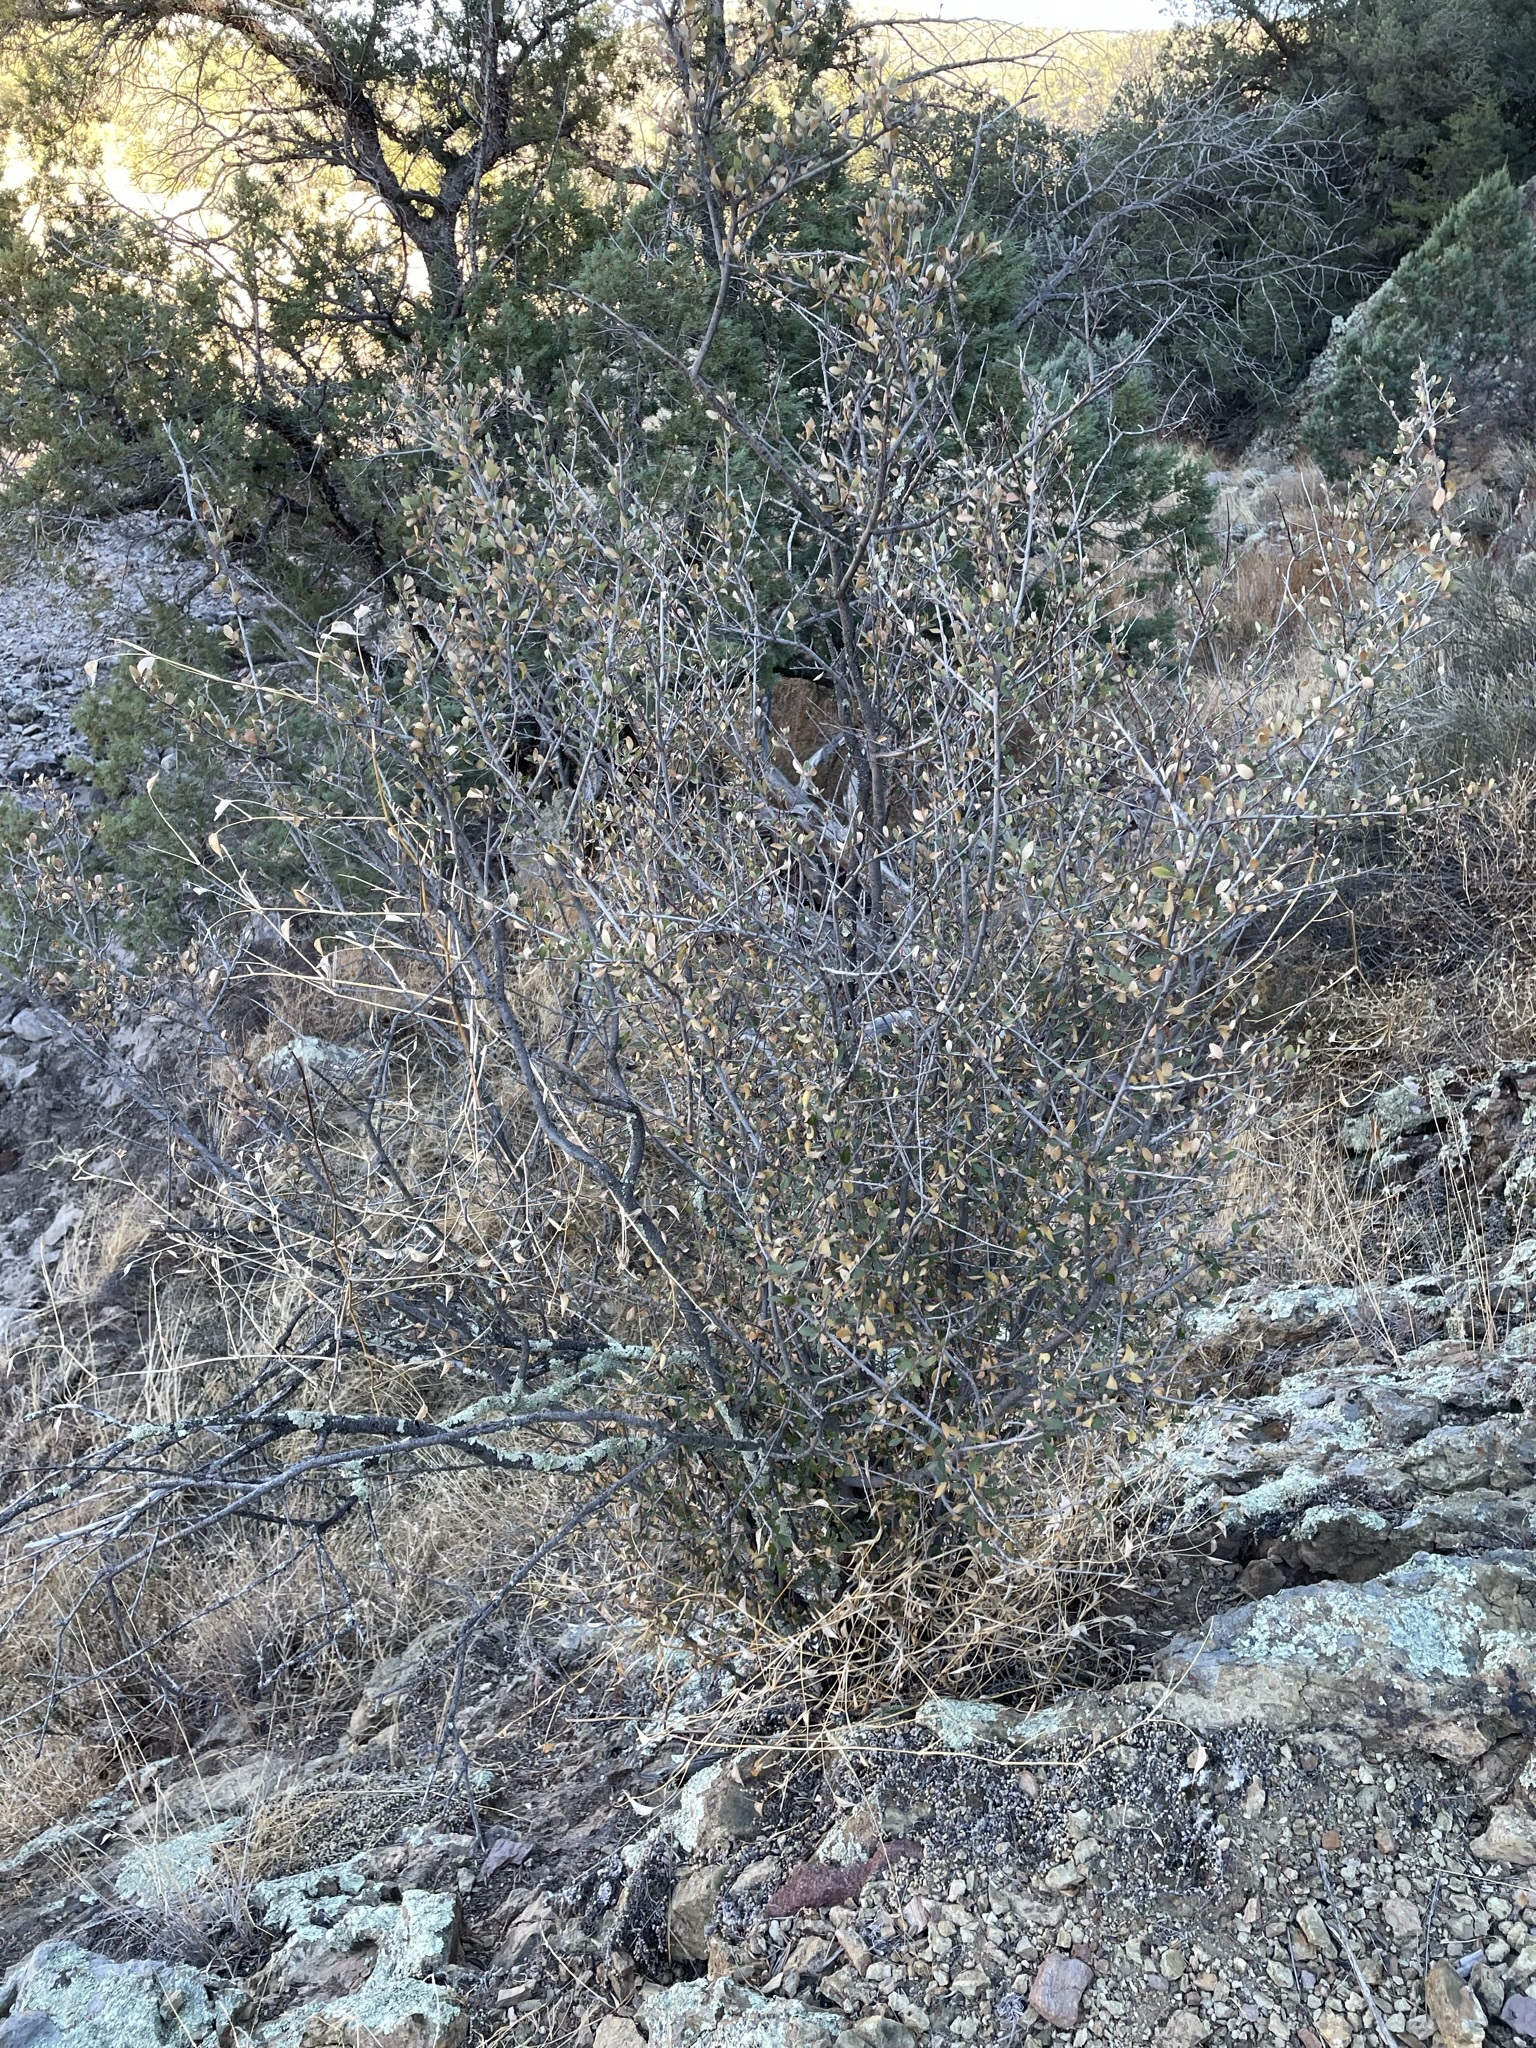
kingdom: Plantae
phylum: Tracheophyta
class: Magnoliopsida
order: Rosales
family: Rosaceae
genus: Cercocarpus
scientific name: Cercocarpus montanus
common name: Alder-leaf cercocarpus
